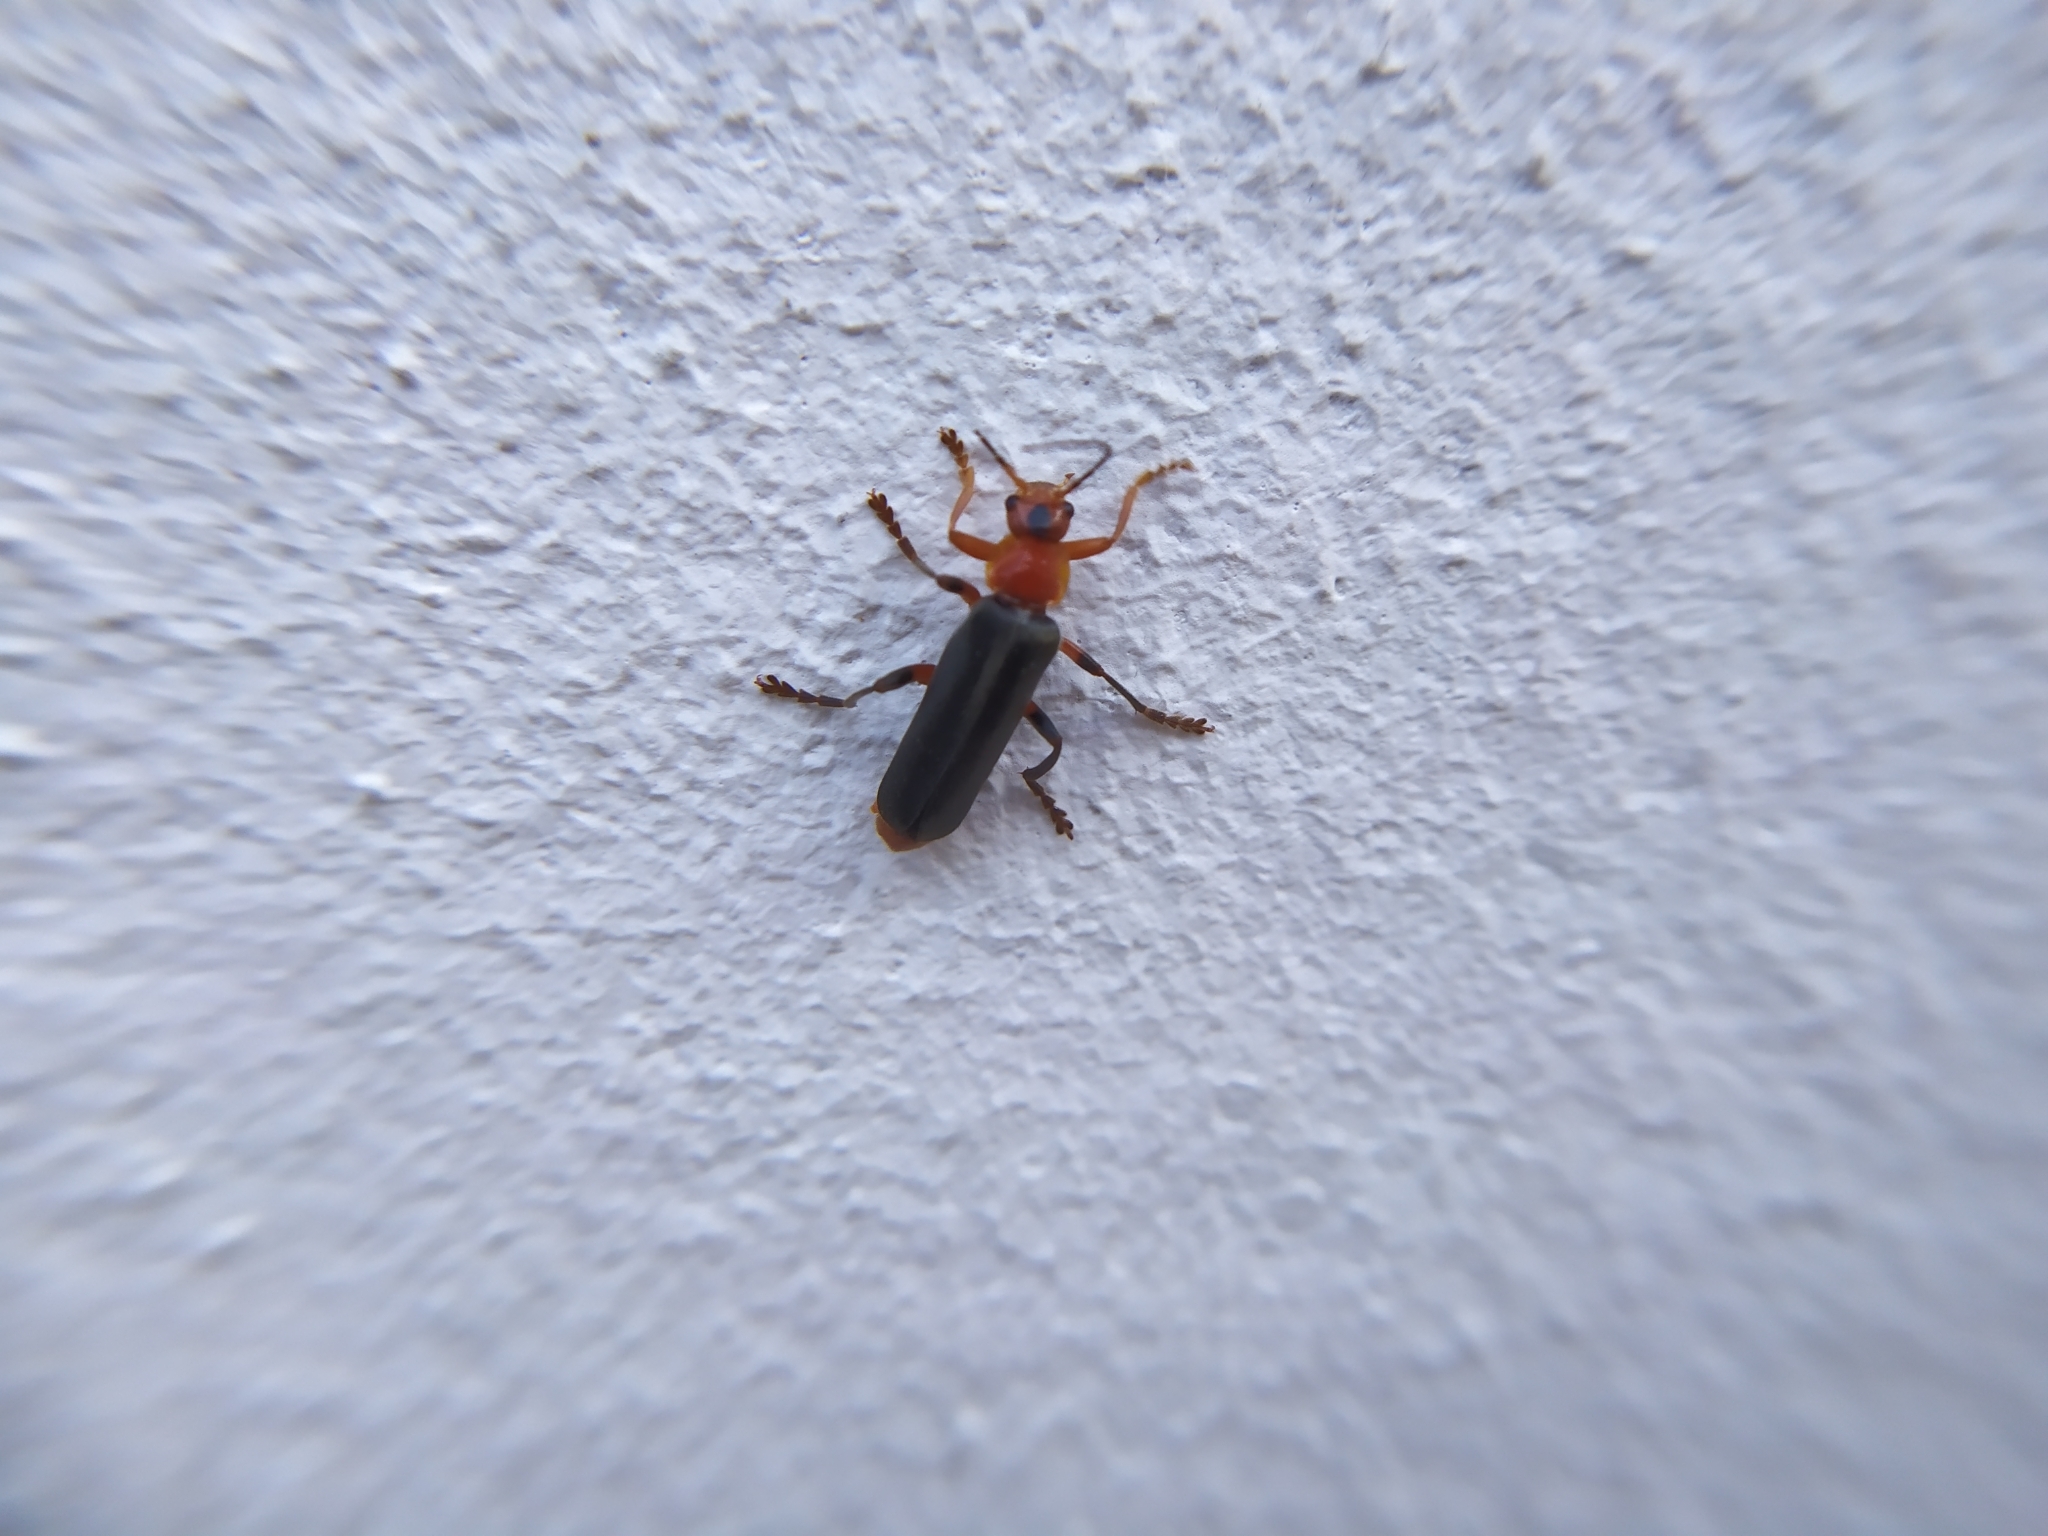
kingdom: Animalia
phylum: Arthropoda
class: Insecta
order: Coleoptera
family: Cantharidae
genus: Cantharis
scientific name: Cantharis livida
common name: Livid soldier beetle
